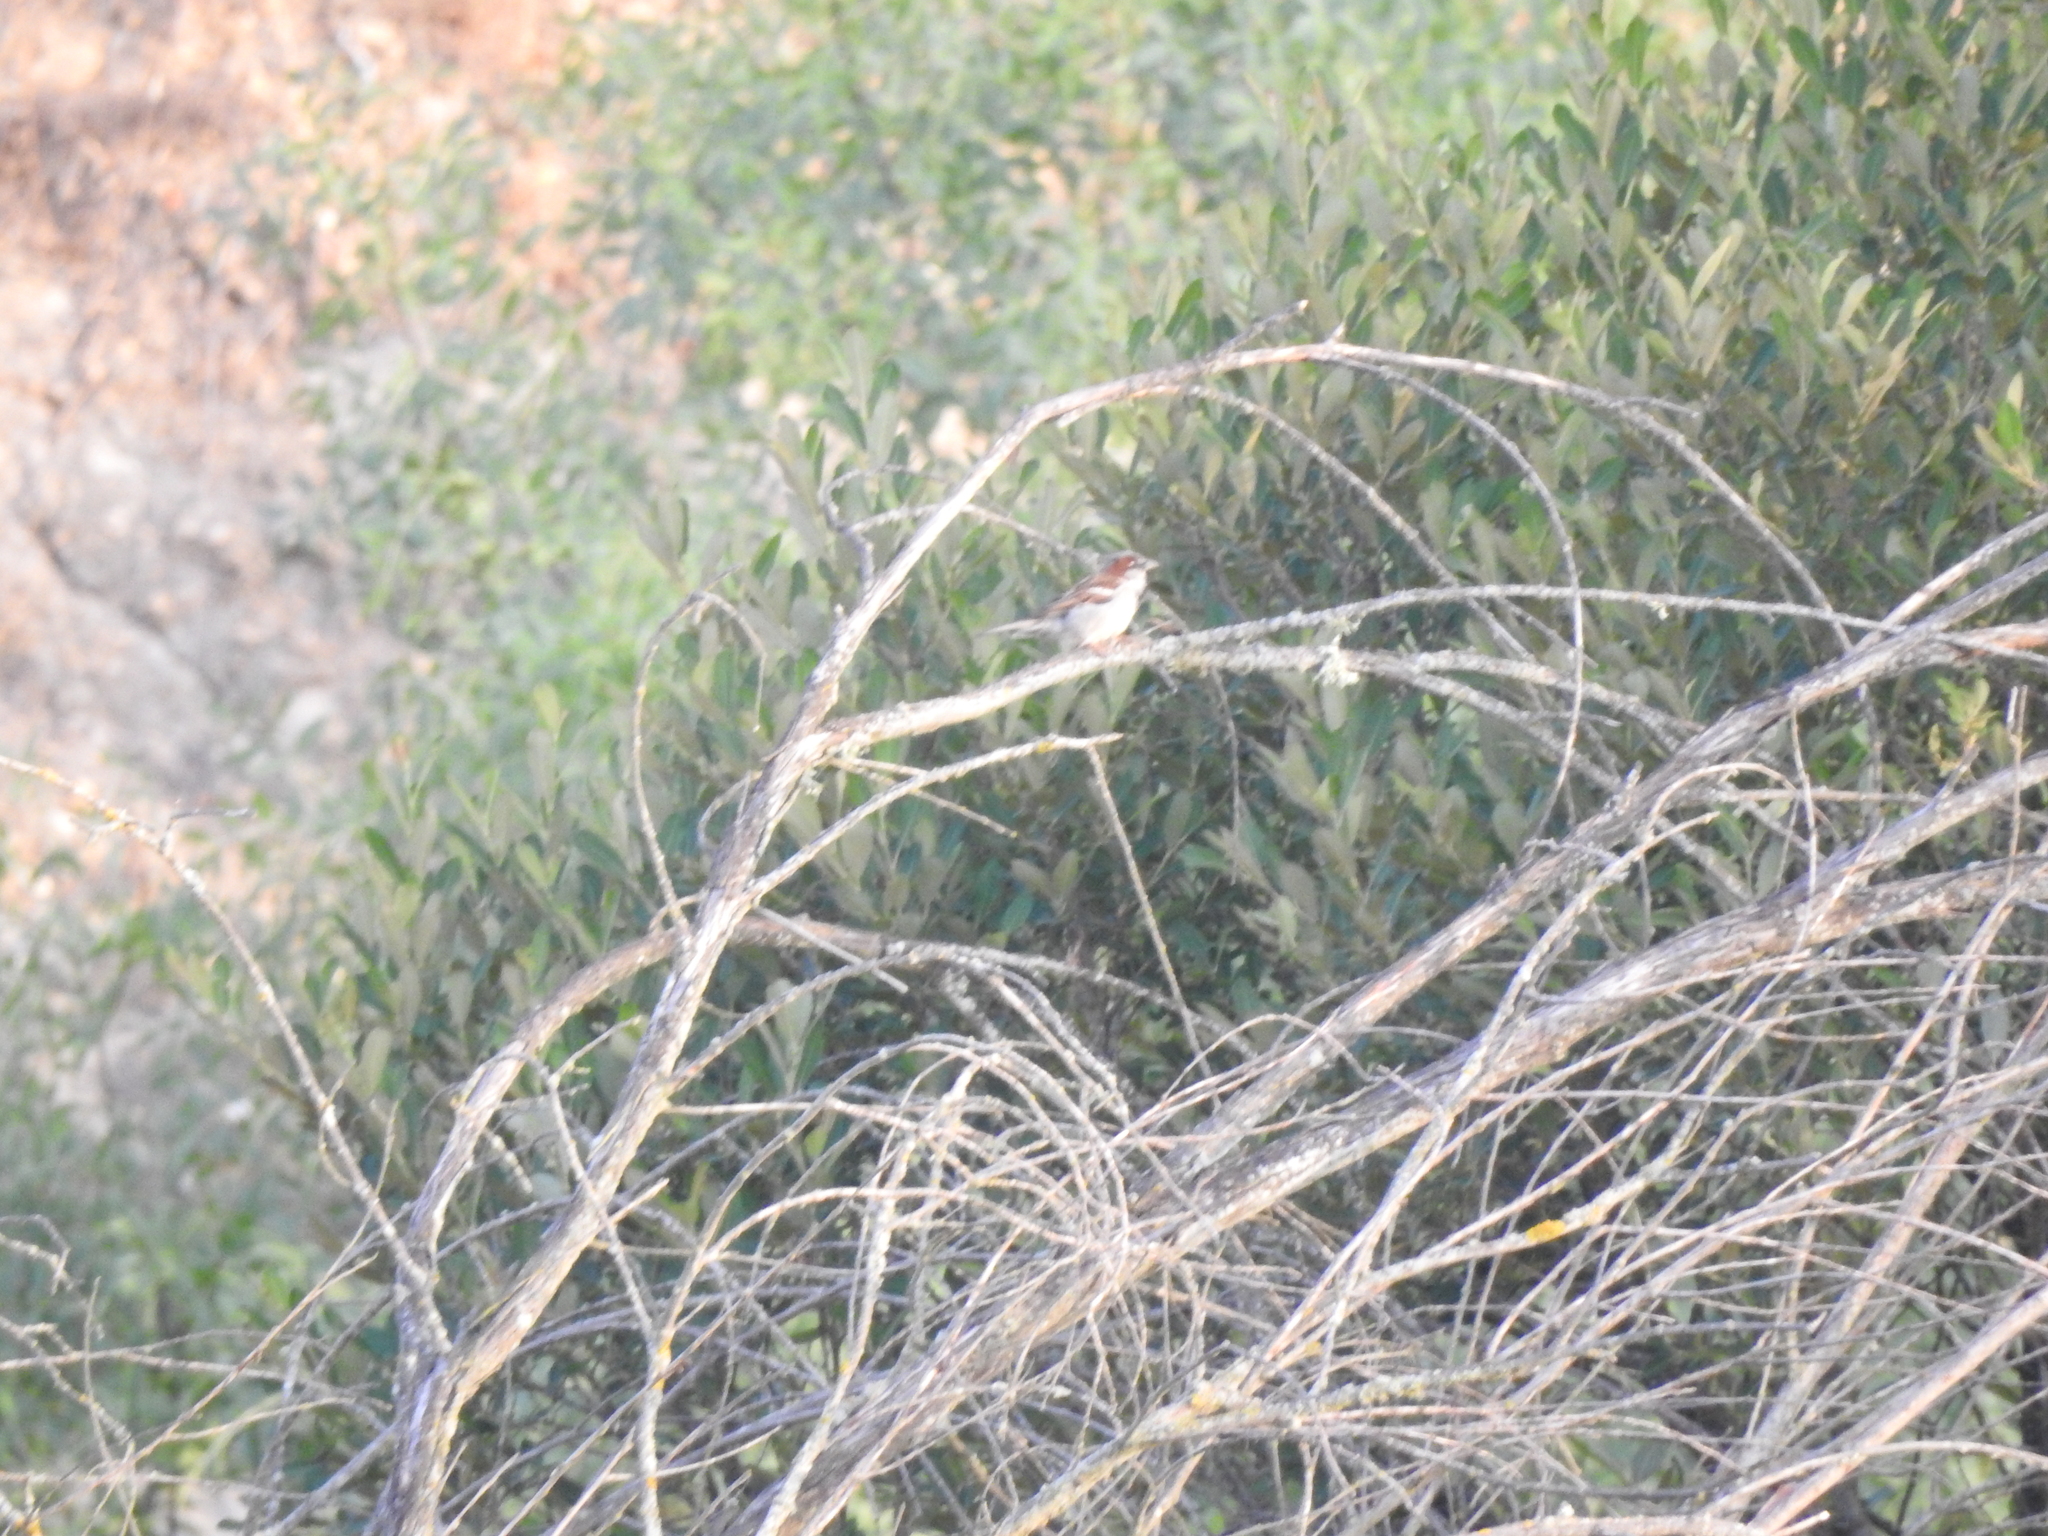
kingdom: Animalia
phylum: Chordata
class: Aves
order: Passeriformes
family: Passeridae
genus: Passer
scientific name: Passer domesticus
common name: House sparrow
